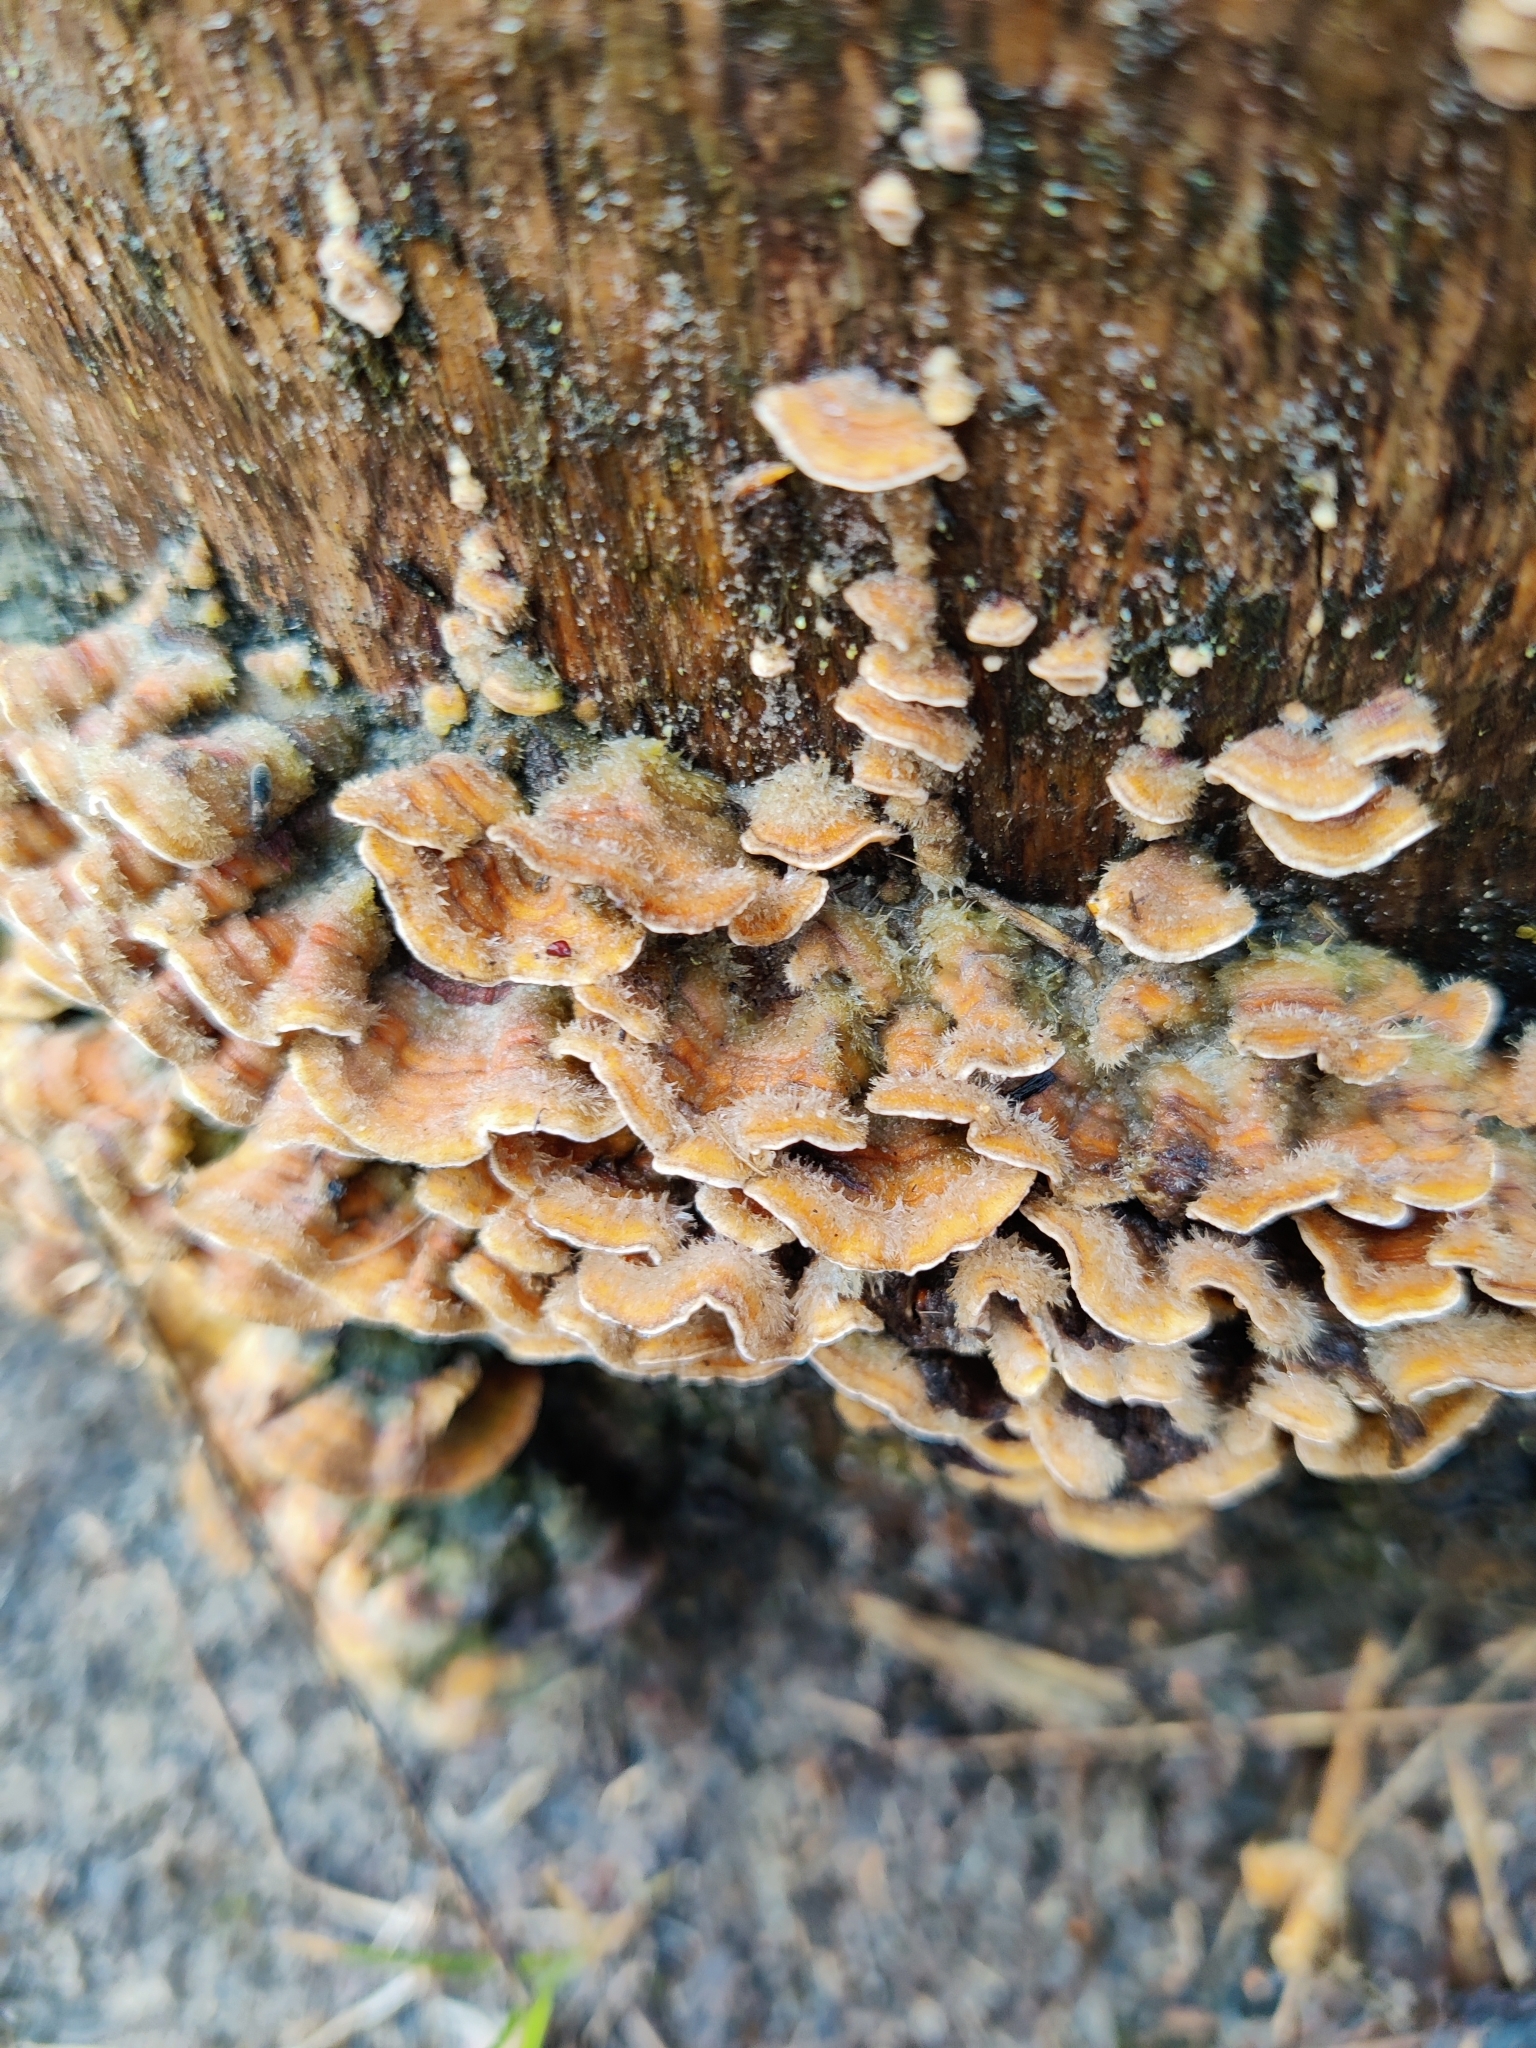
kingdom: Fungi
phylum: Basidiomycota
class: Agaricomycetes
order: Russulales
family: Stereaceae
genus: Stereum
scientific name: Stereum hirsutum
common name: Hairy curtain crust
